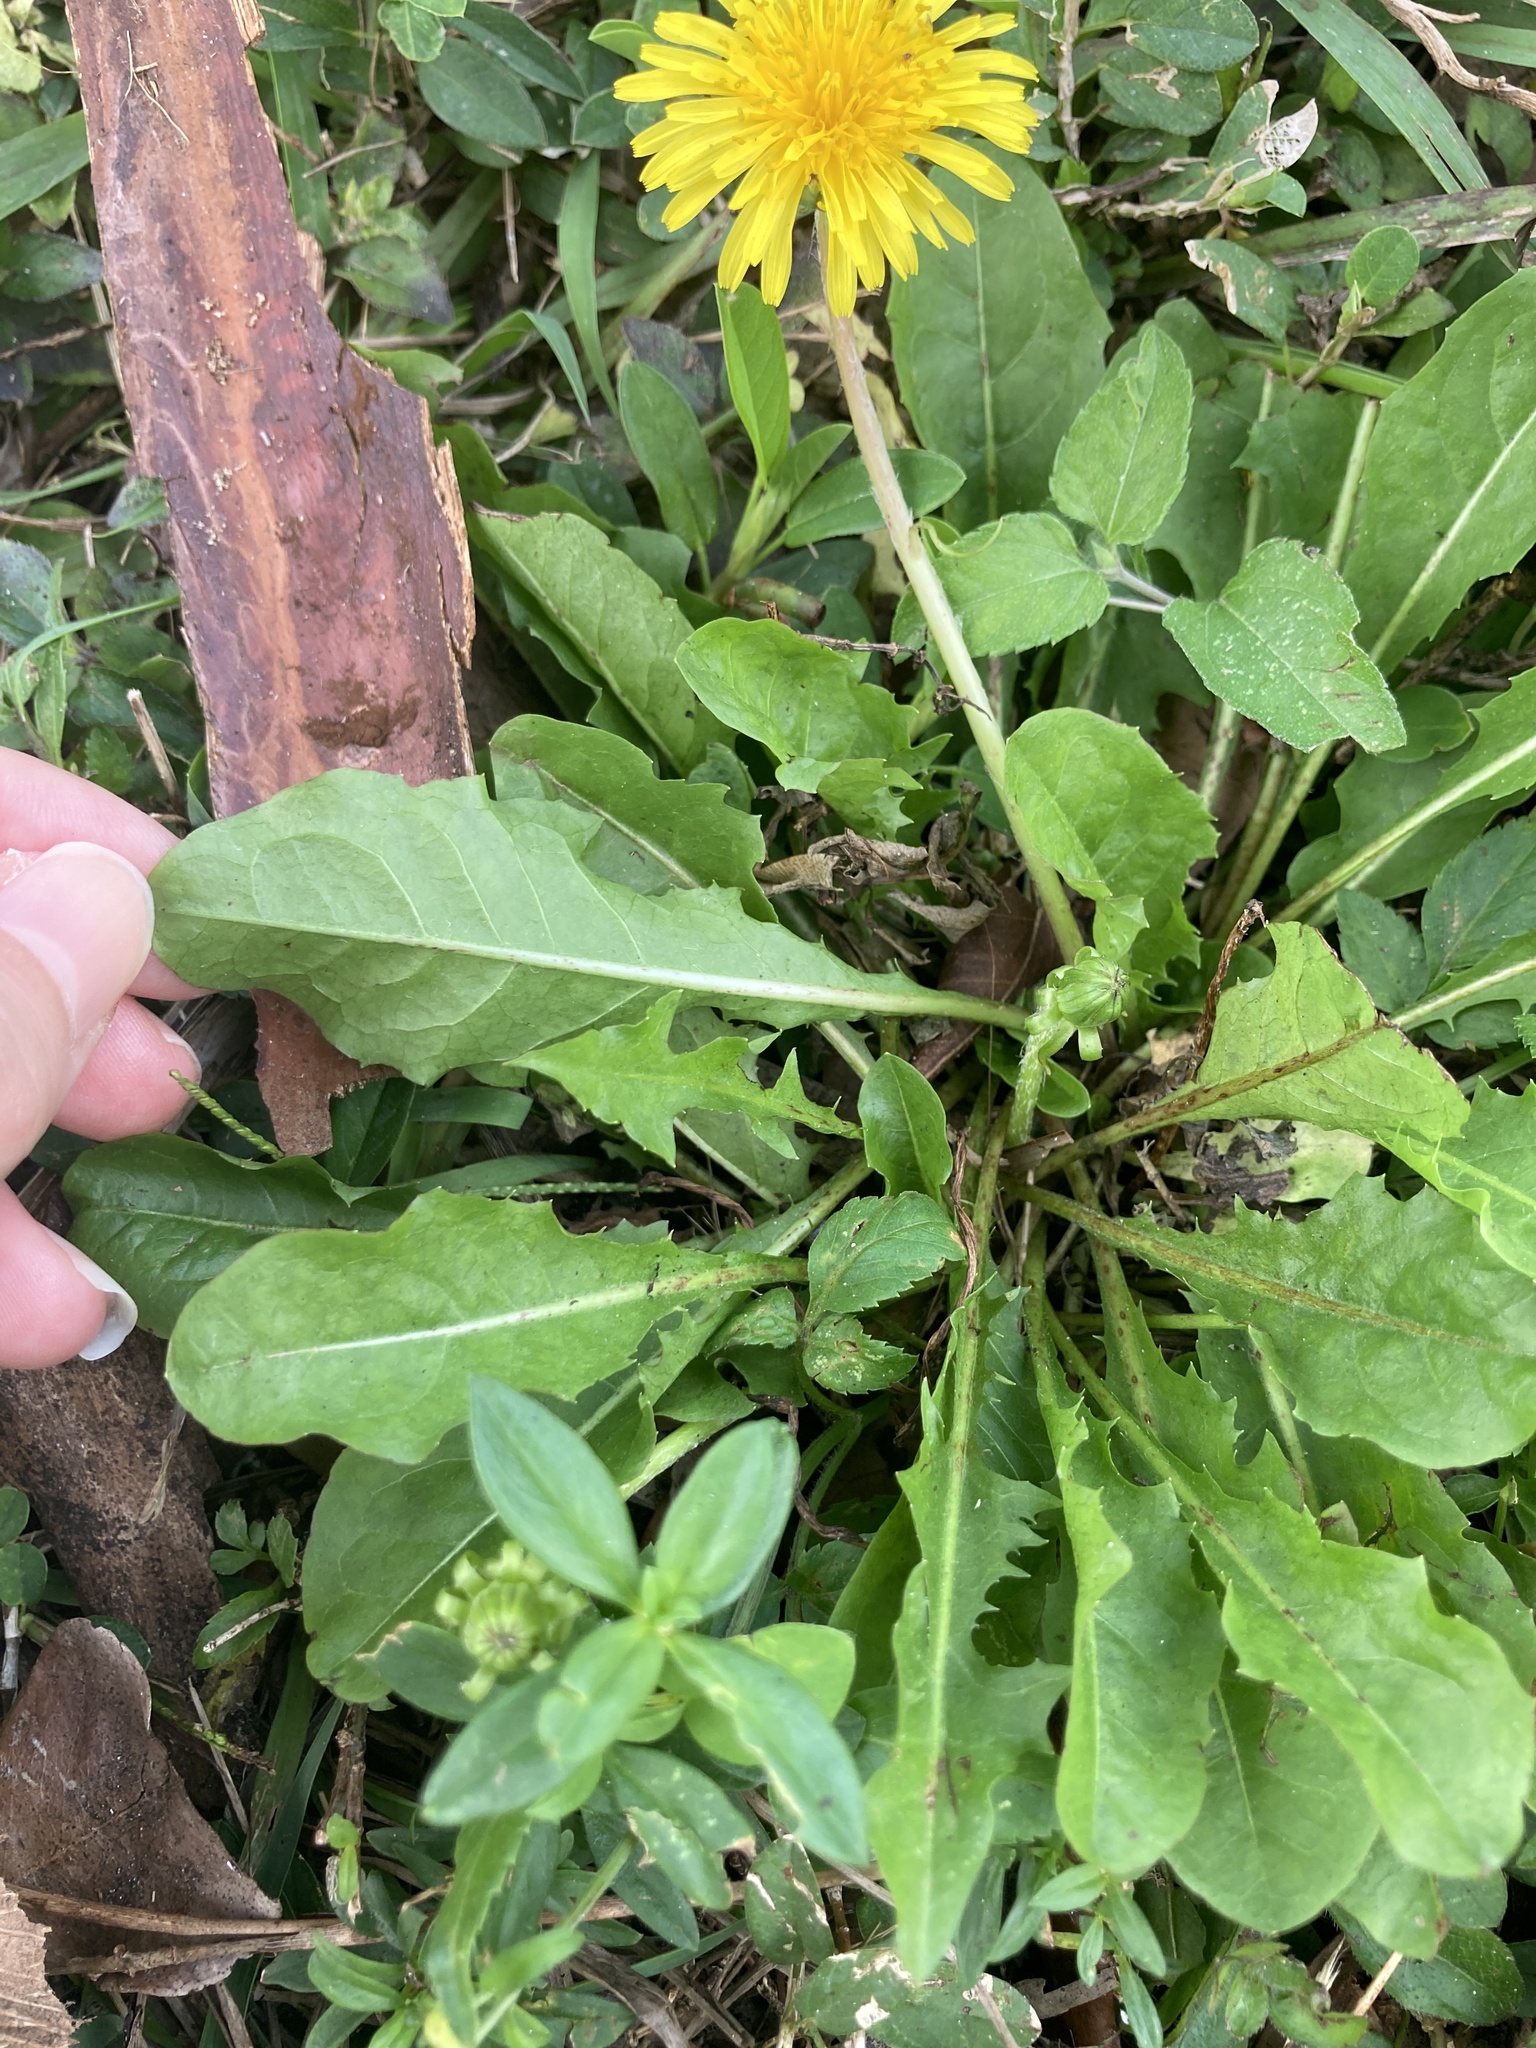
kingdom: Plantae
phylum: Tracheophyta
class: Magnoliopsida
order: Asterales
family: Asteraceae
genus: Taraxacum
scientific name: Taraxacum officinale
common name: Common dandelion
